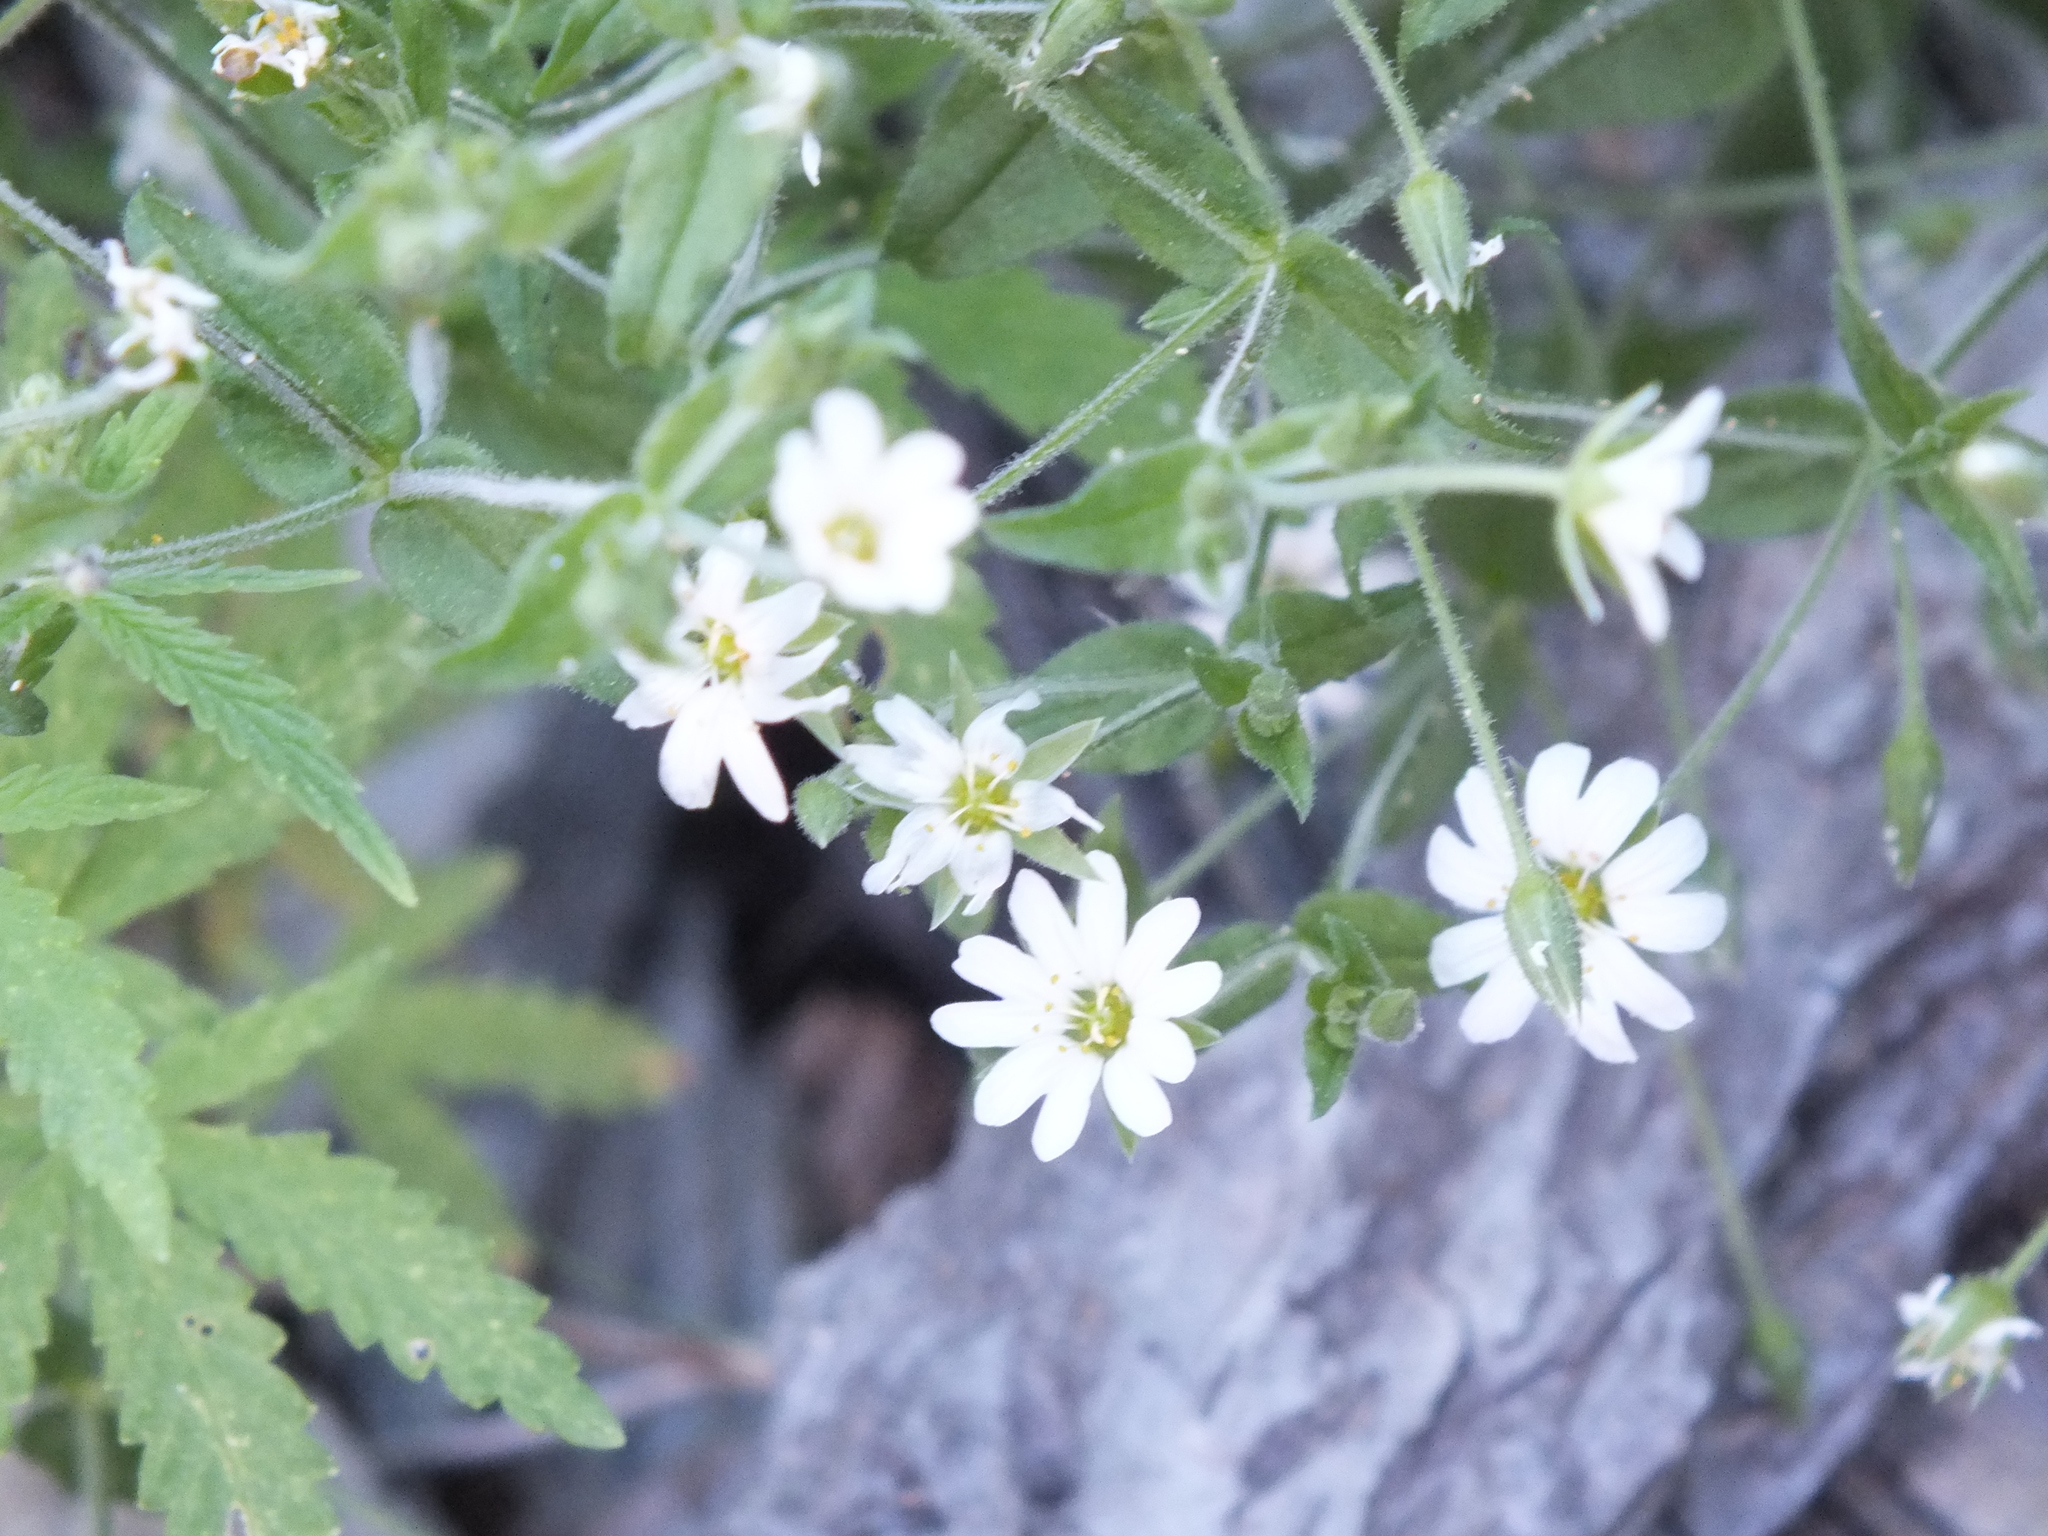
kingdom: Plantae
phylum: Tracheophyta
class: Magnoliopsida
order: Caryophyllales
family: Caryophyllaceae
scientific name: Caryophyllaceae
